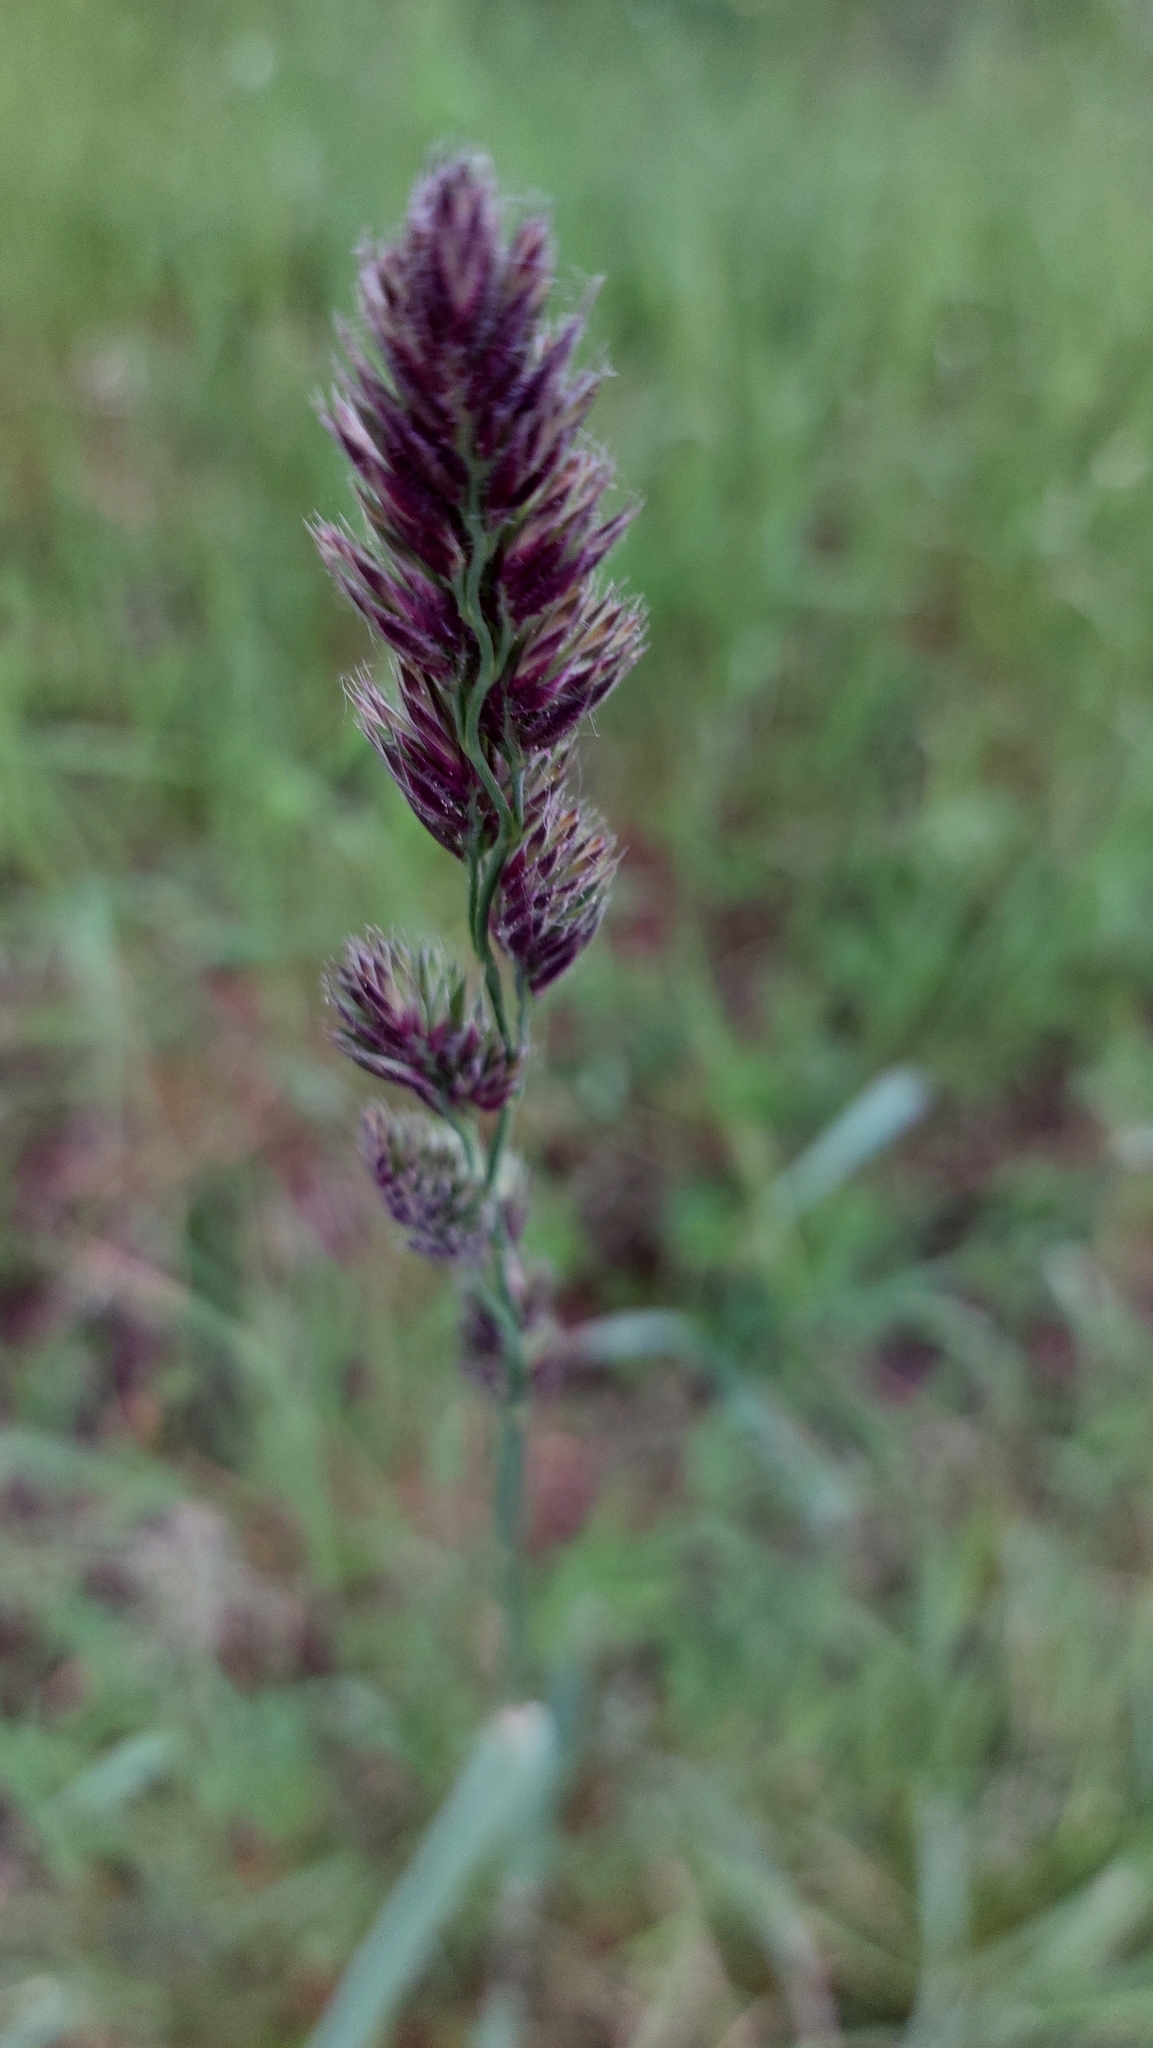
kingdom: Plantae
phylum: Tracheophyta
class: Liliopsida
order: Poales
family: Poaceae
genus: Dactylis
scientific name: Dactylis glomerata
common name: Orchardgrass
